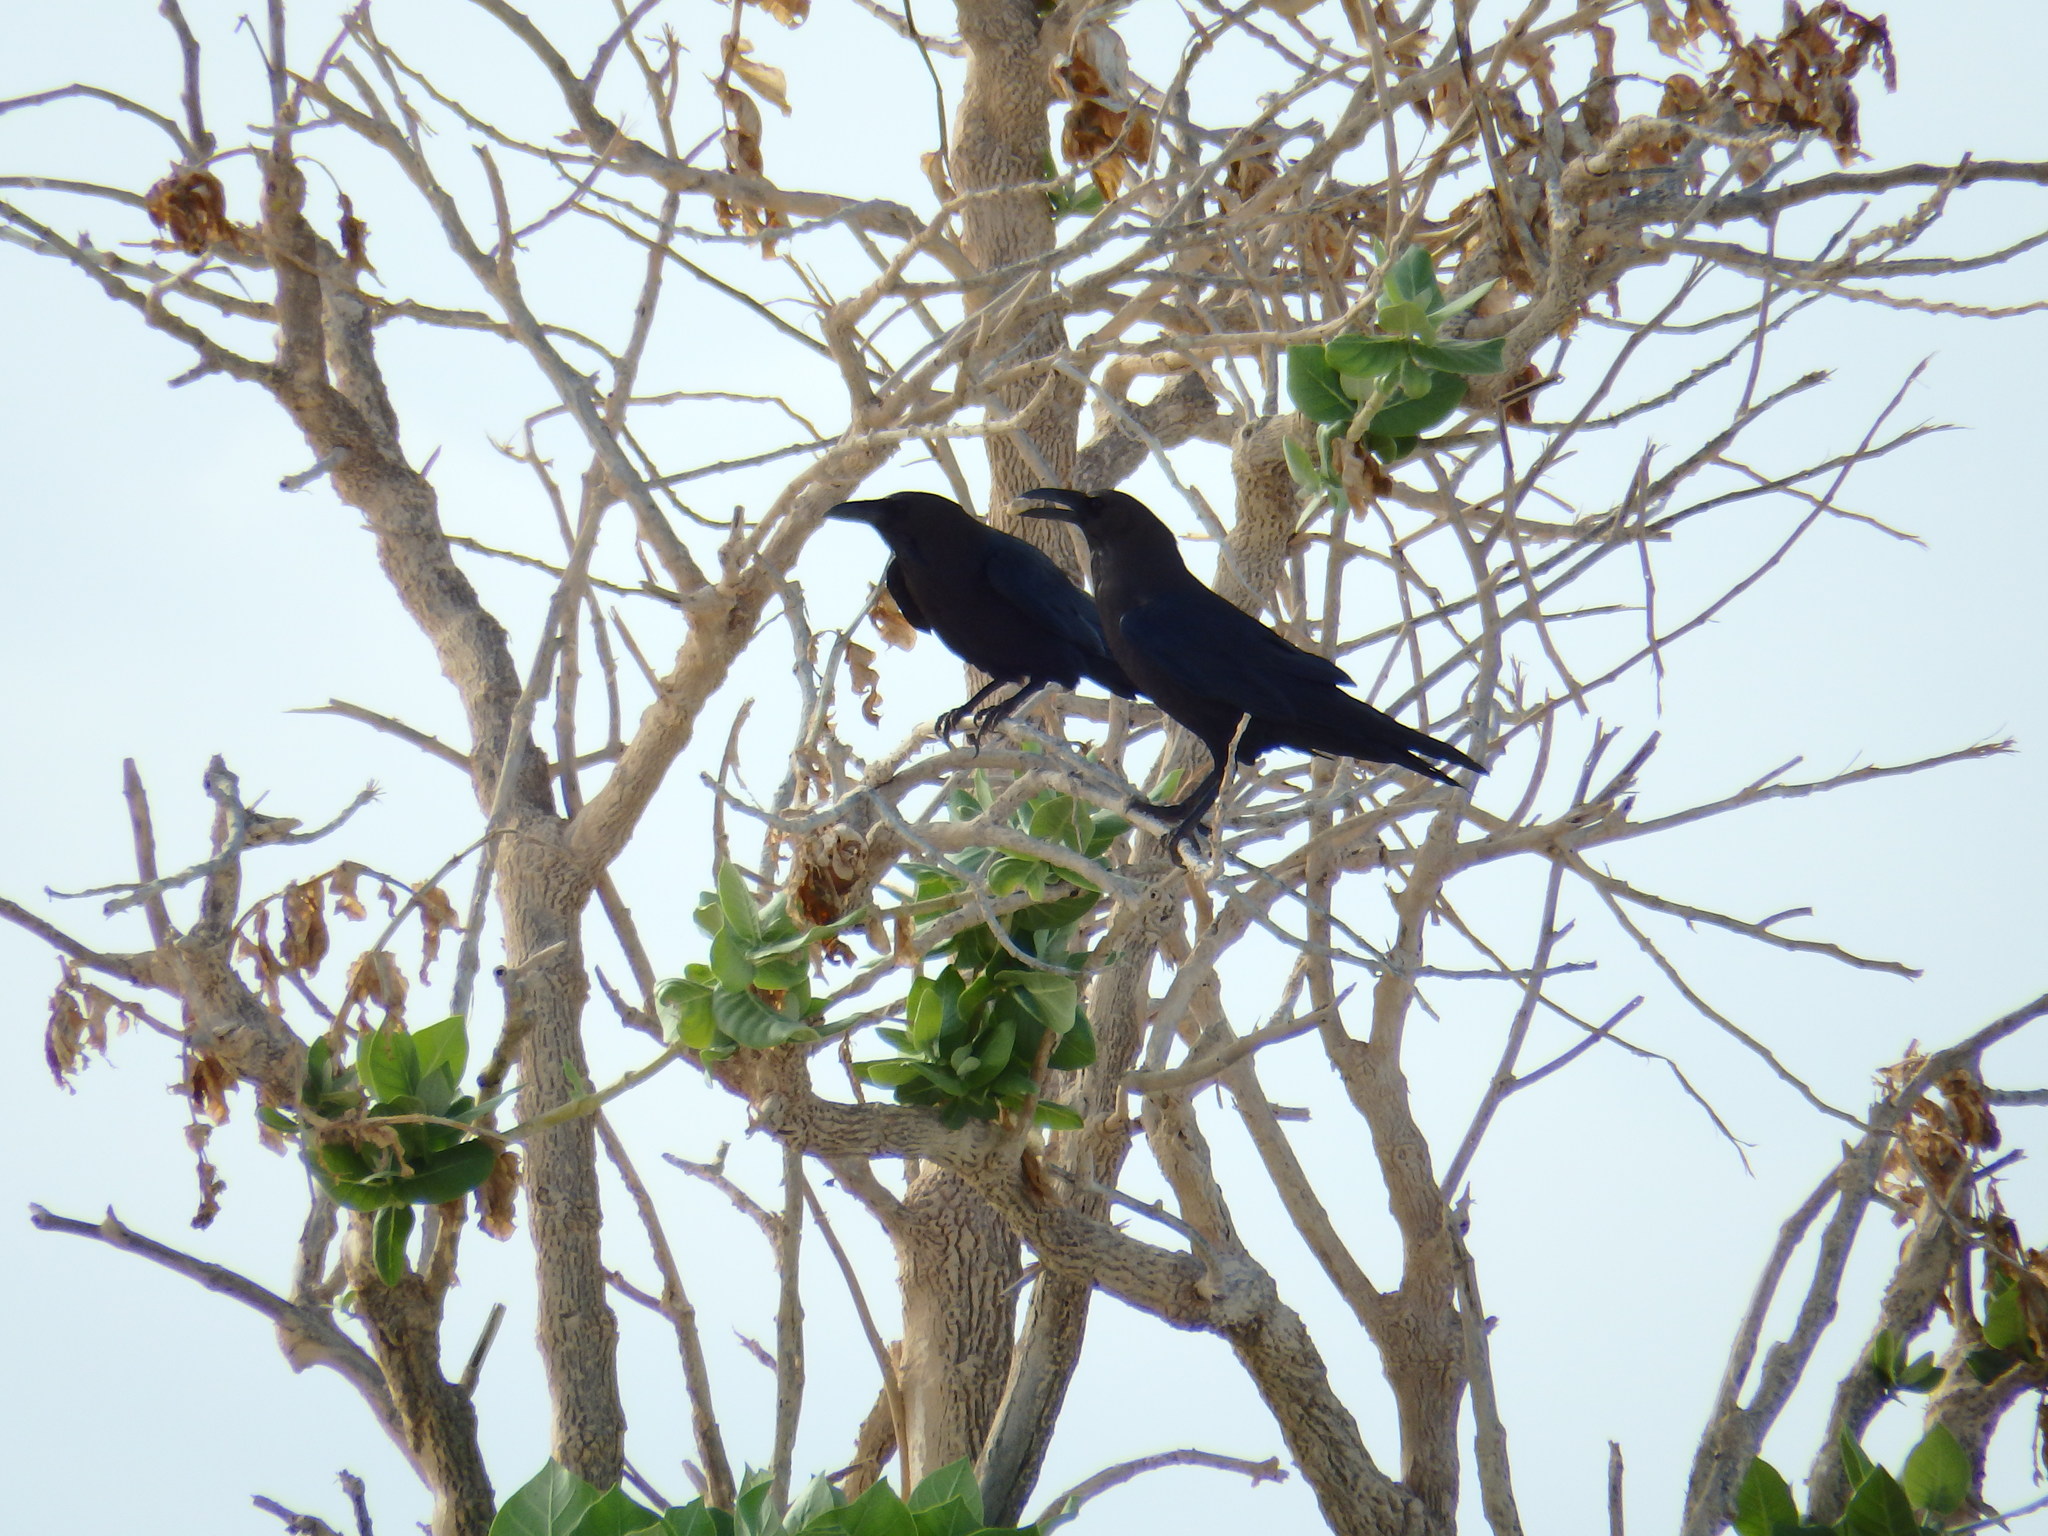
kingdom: Animalia
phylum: Chordata
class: Aves
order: Passeriformes
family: Corvidae
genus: Corvus
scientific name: Corvus ruficollis
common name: Brown-necked raven
